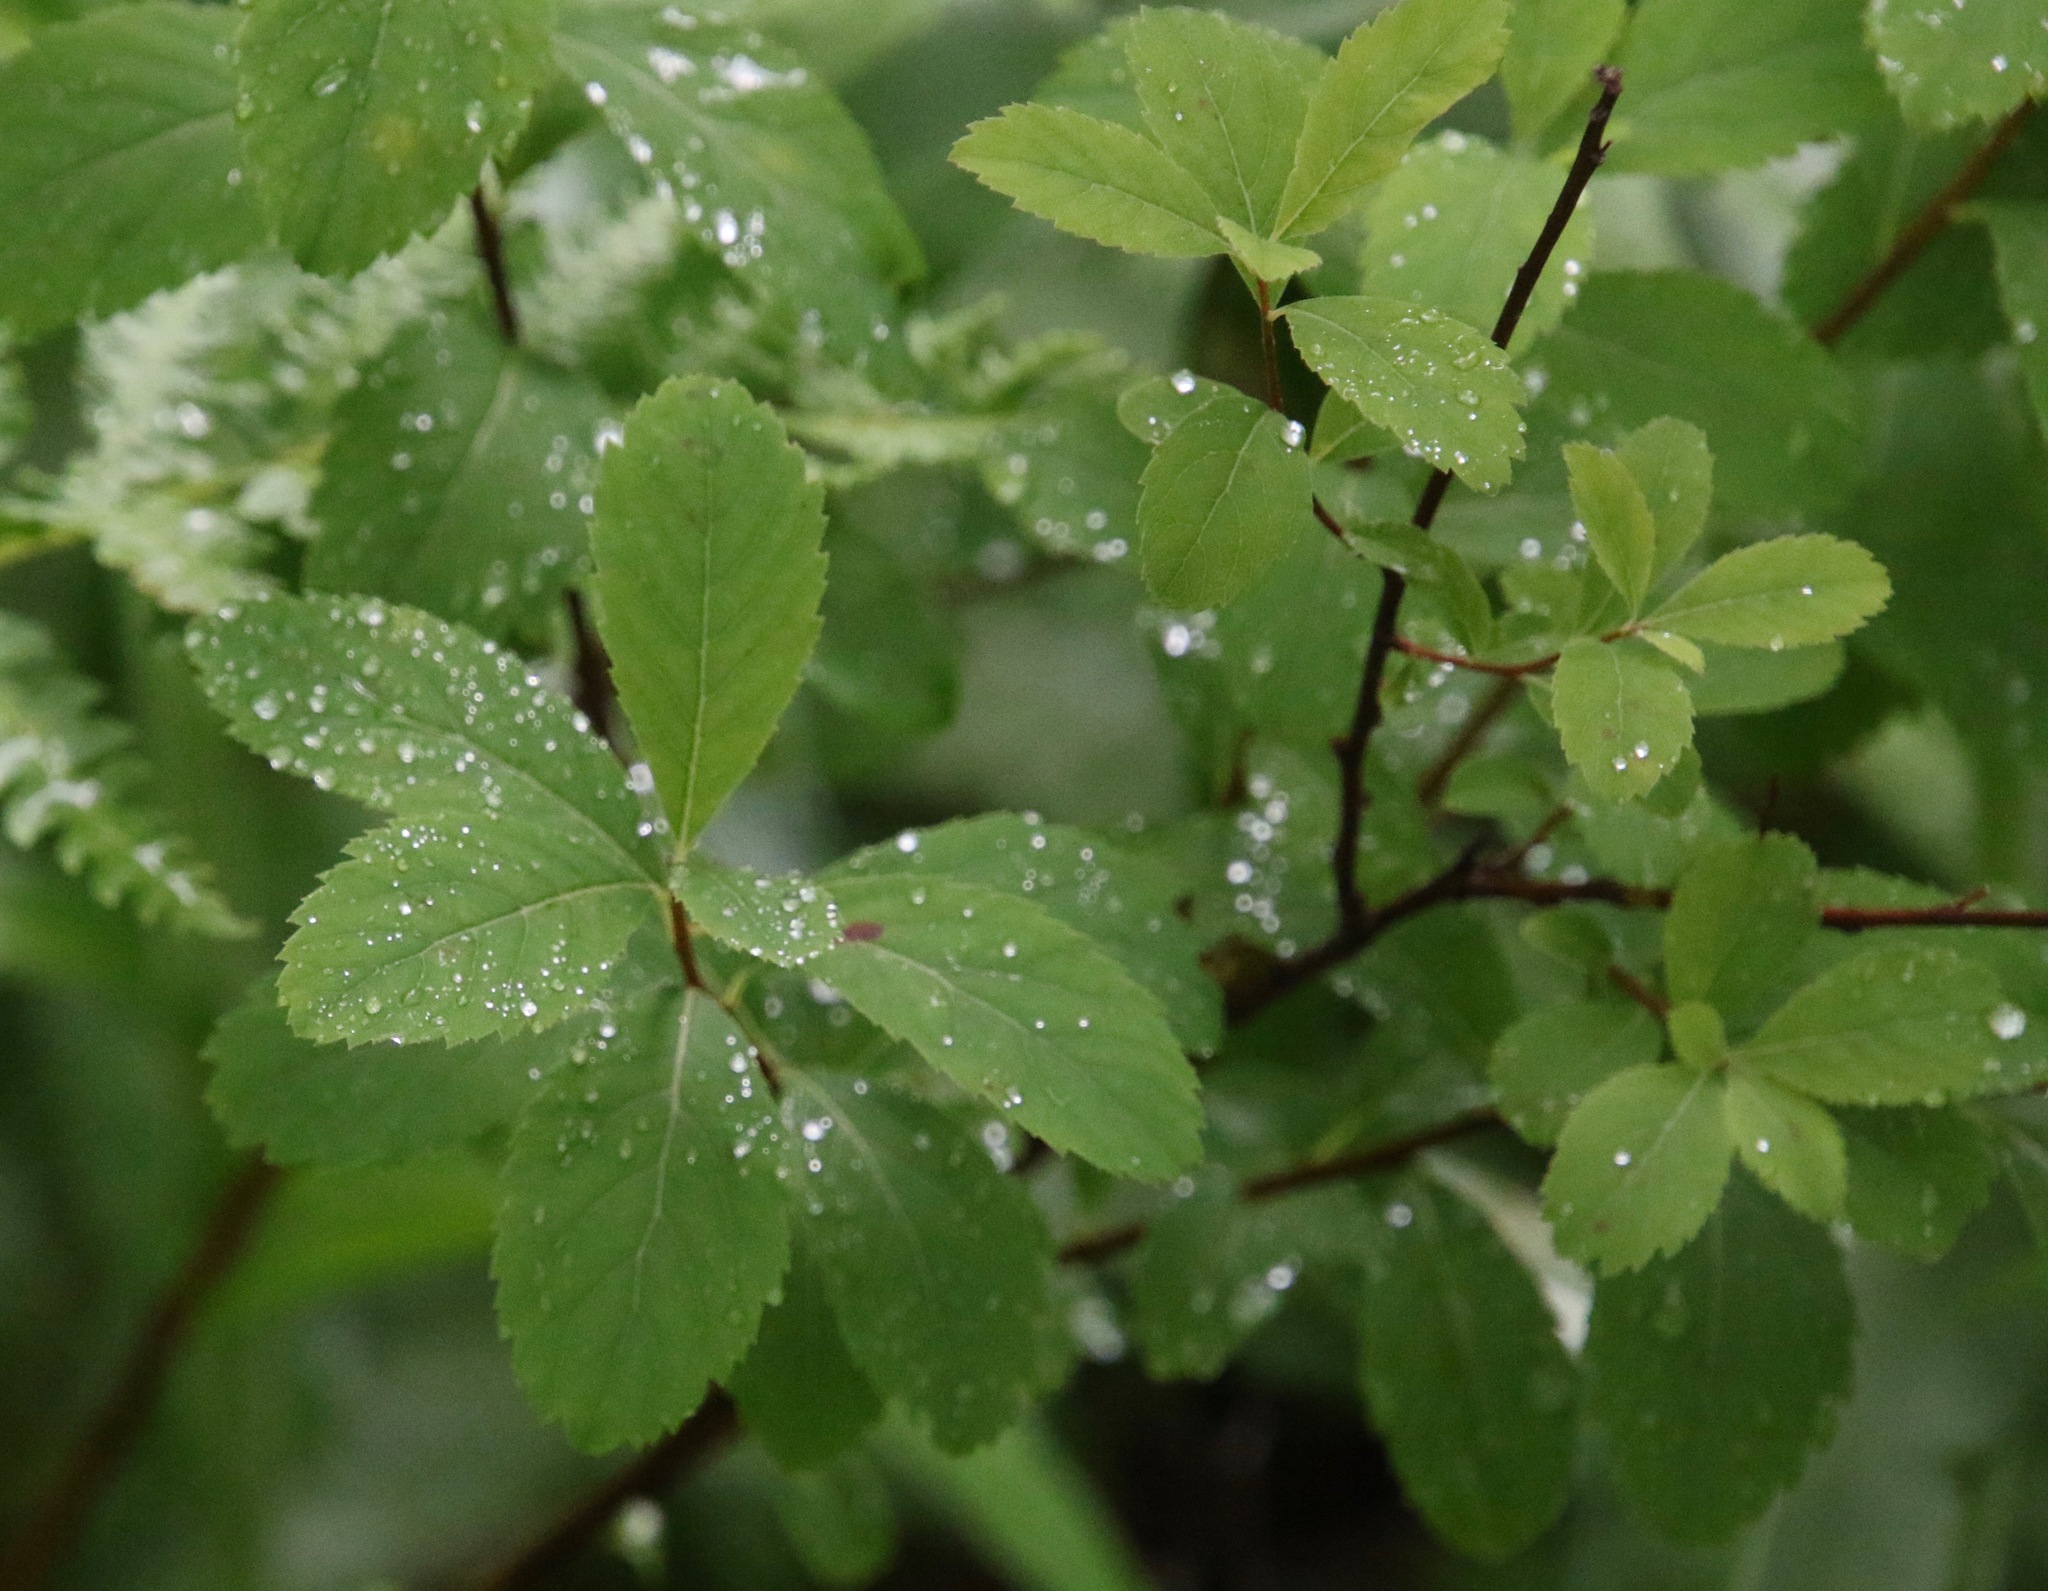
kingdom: Plantae
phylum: Tracheophyta
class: Magnoliopsida
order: Rosales
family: Rosaceae
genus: Spiraea
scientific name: Spiraea alba
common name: Pale bridewort
